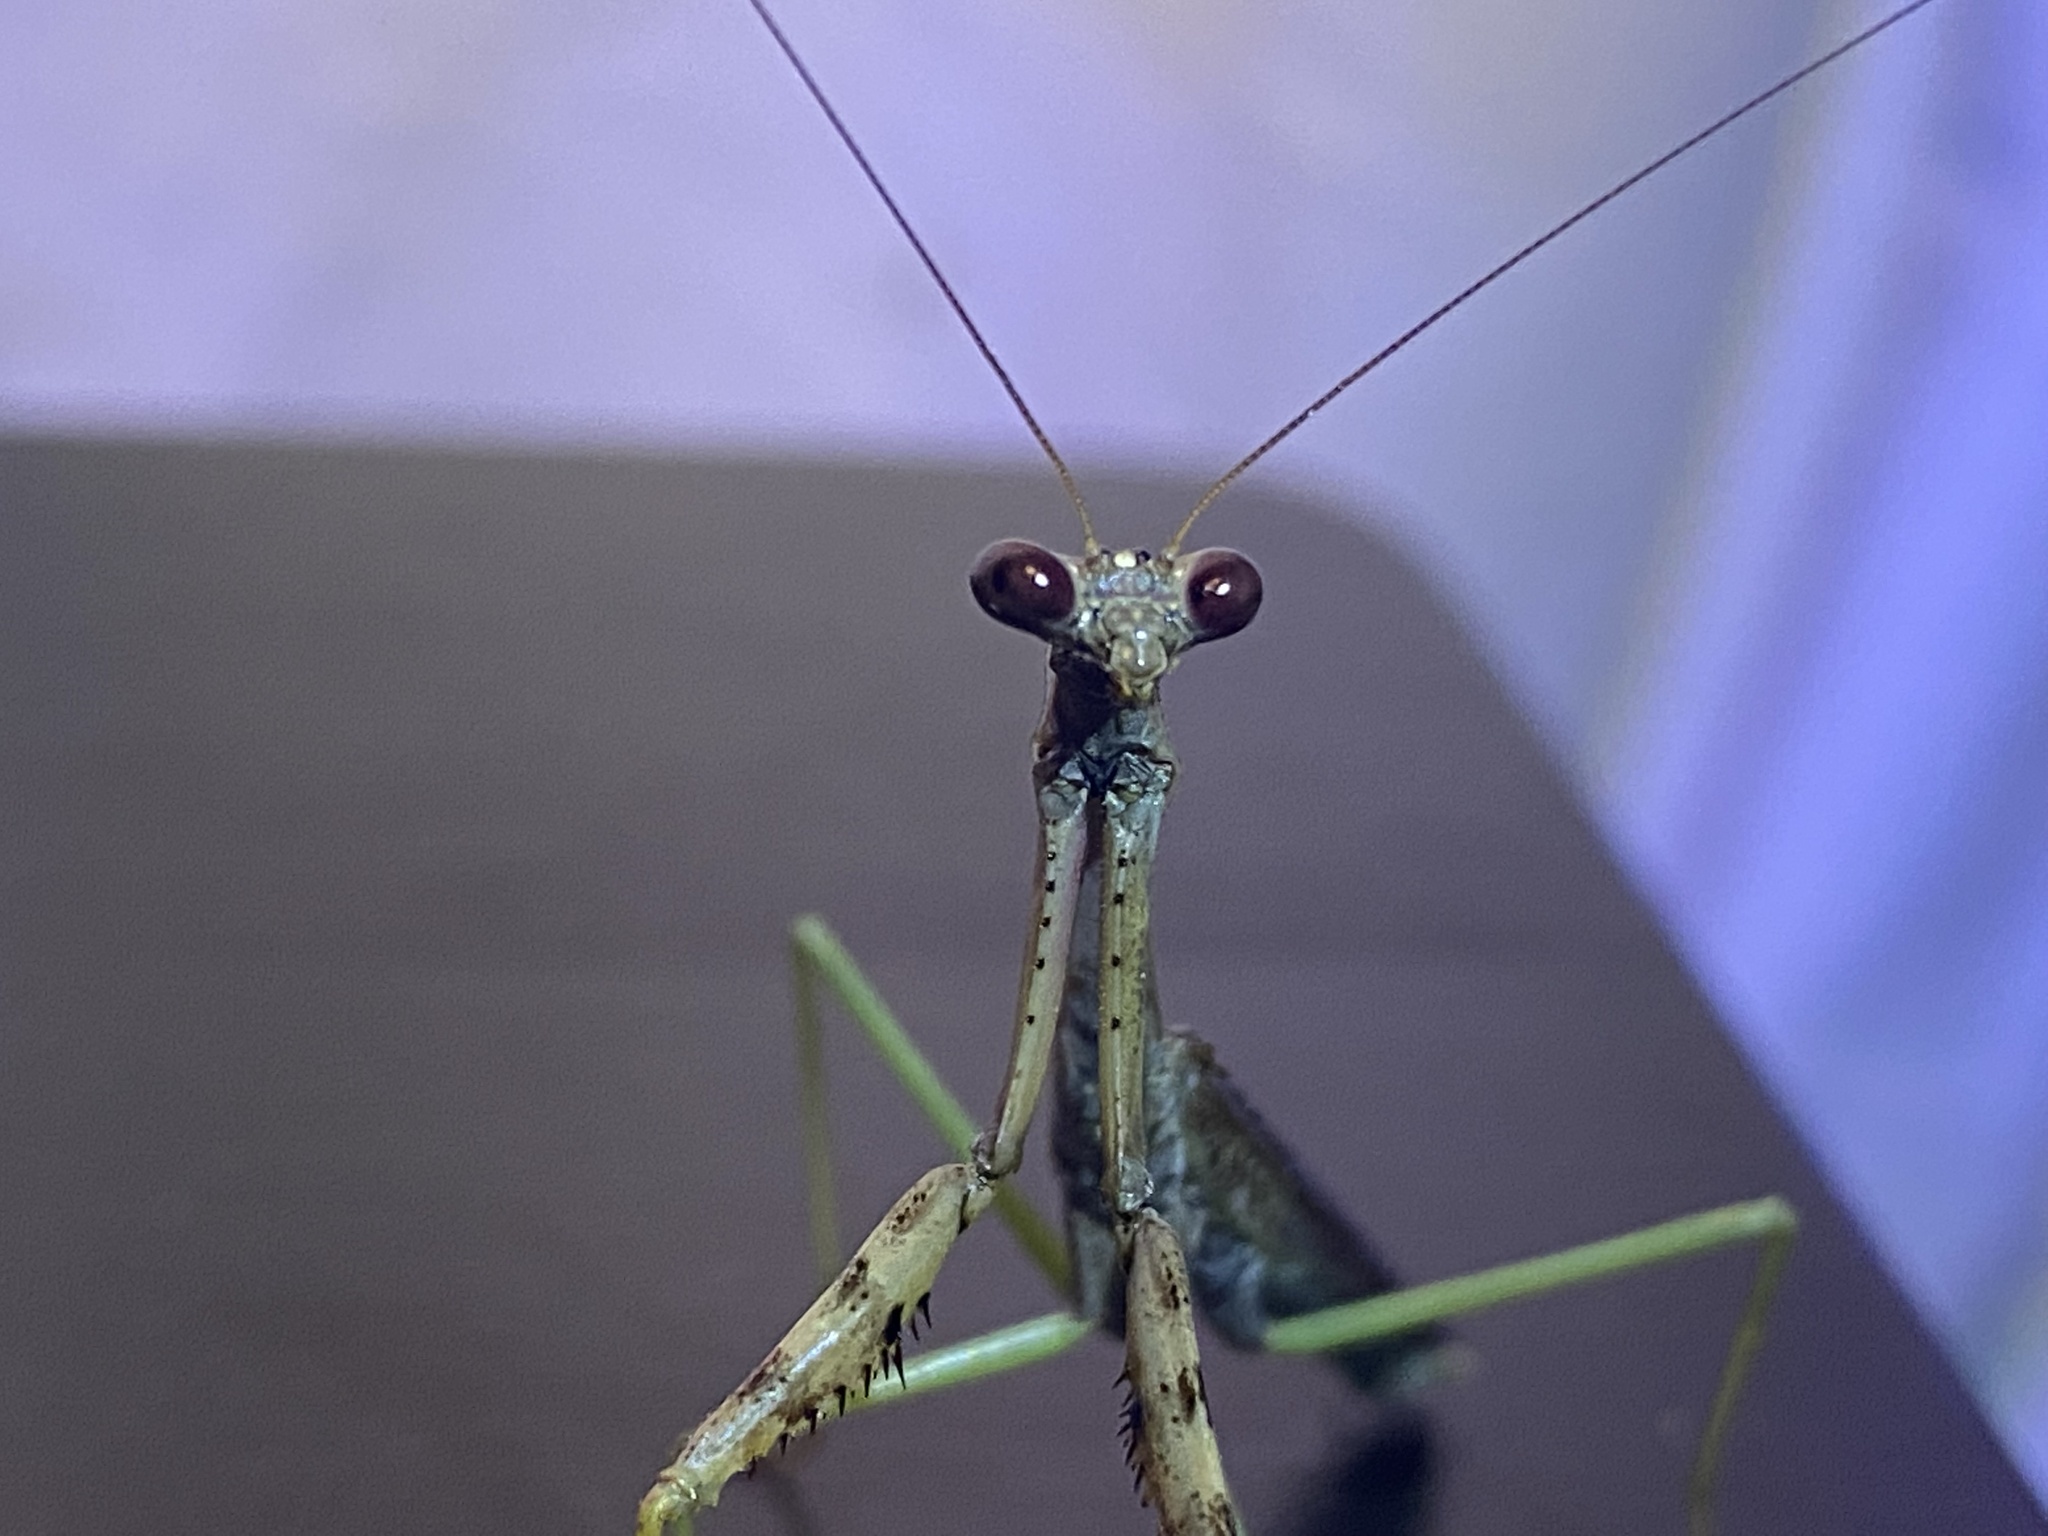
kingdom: Animalia
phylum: Arthropoda
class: Insecta
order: Mantodea
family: Mantidae
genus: Stagmomantis
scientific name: Stagmomantis carolina
